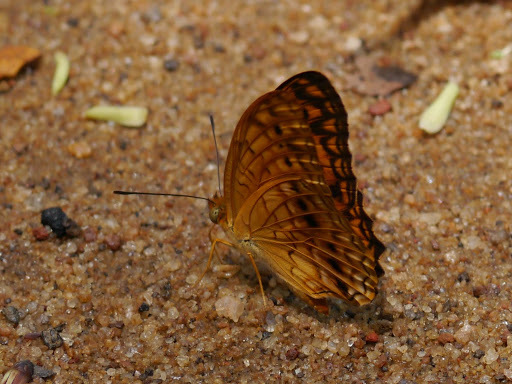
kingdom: Animalia
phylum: Arthropoda
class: Insecta
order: Lepidoptera
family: Nymphalidae
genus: Phalanta
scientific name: Phalanta columbina
